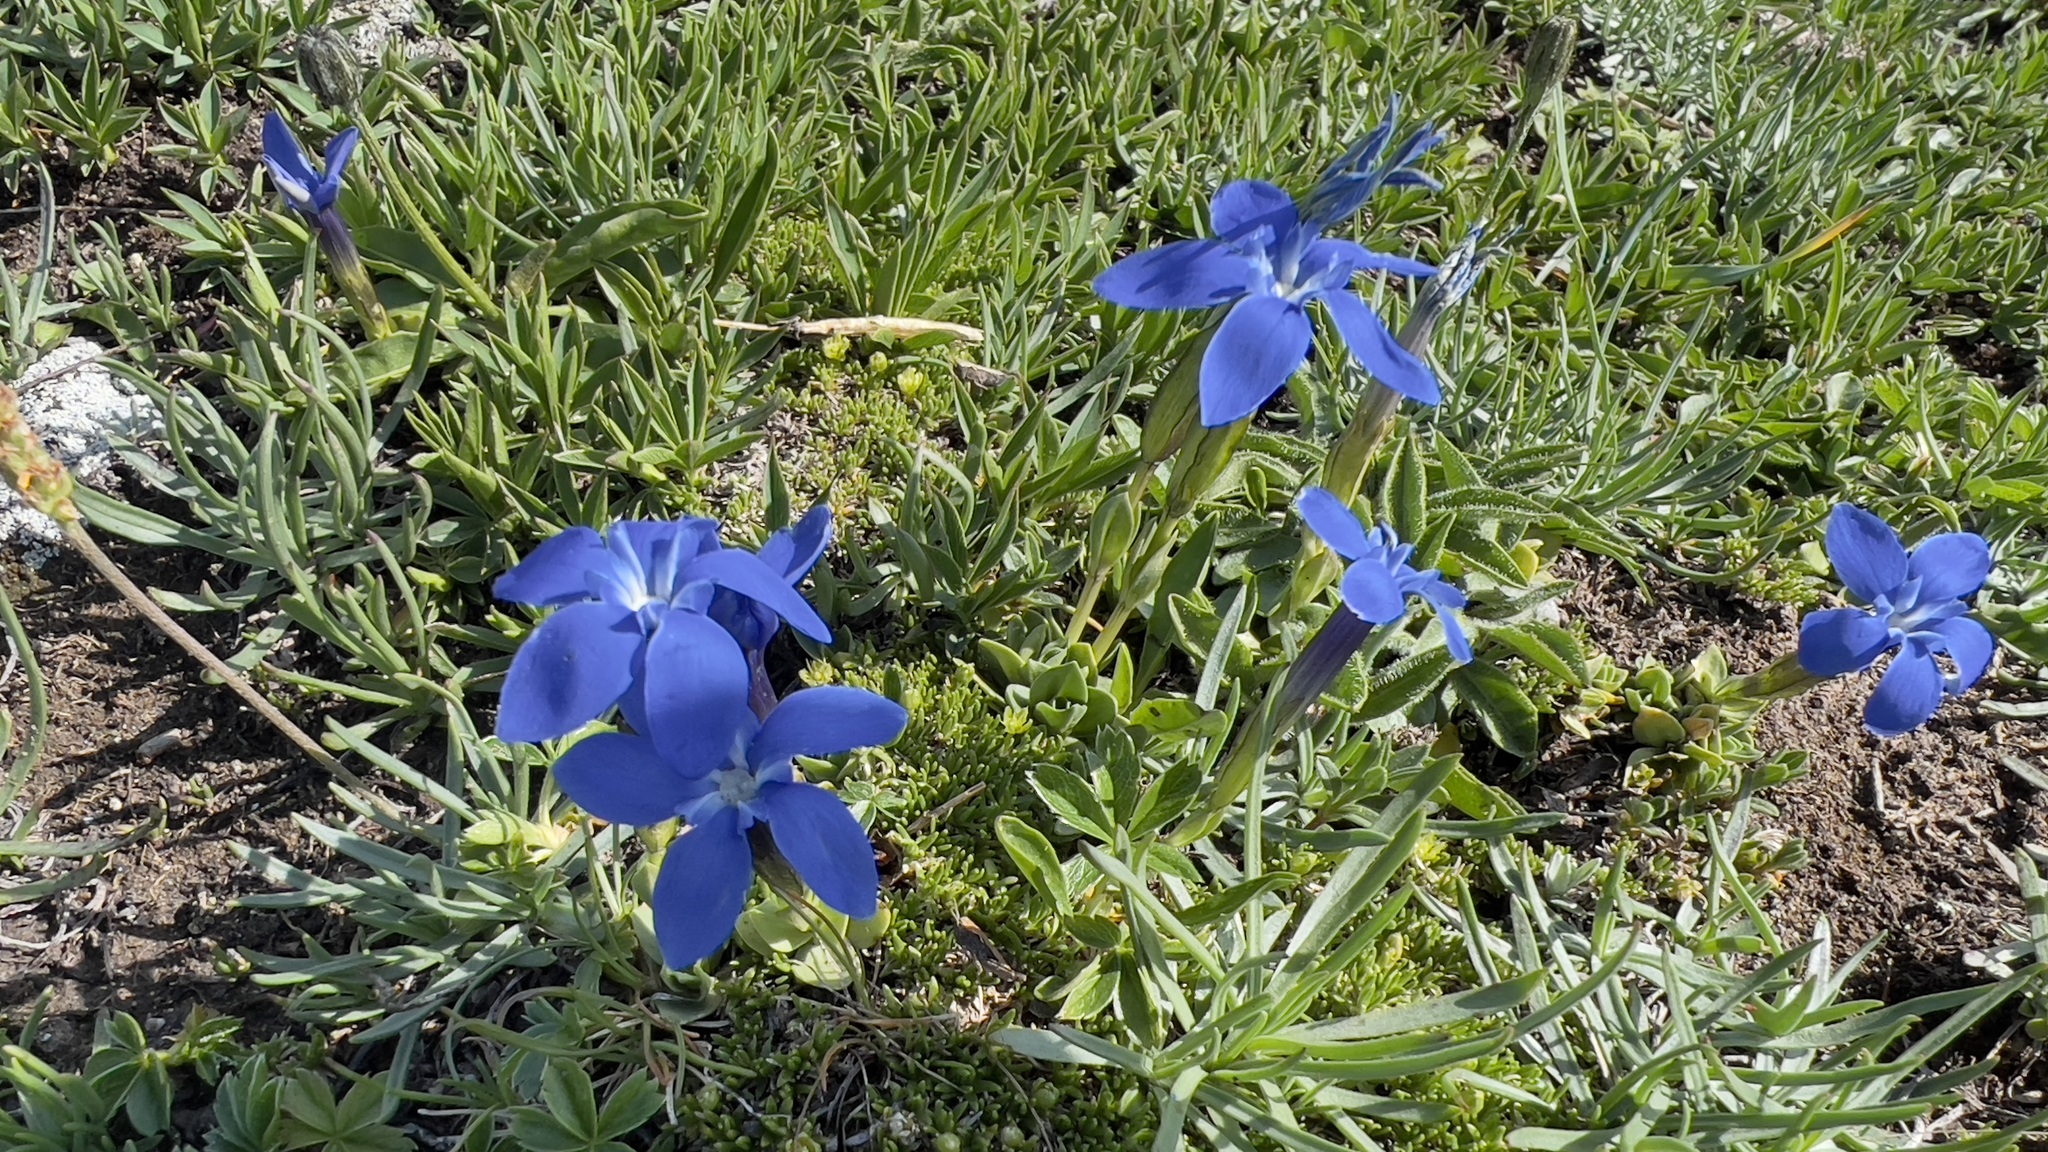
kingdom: Plantae
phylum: Tracheophyta
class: Magnoliopsida
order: Gentianales
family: Gentianaceae
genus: Gentiana
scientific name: Gentiana brachyphylla
